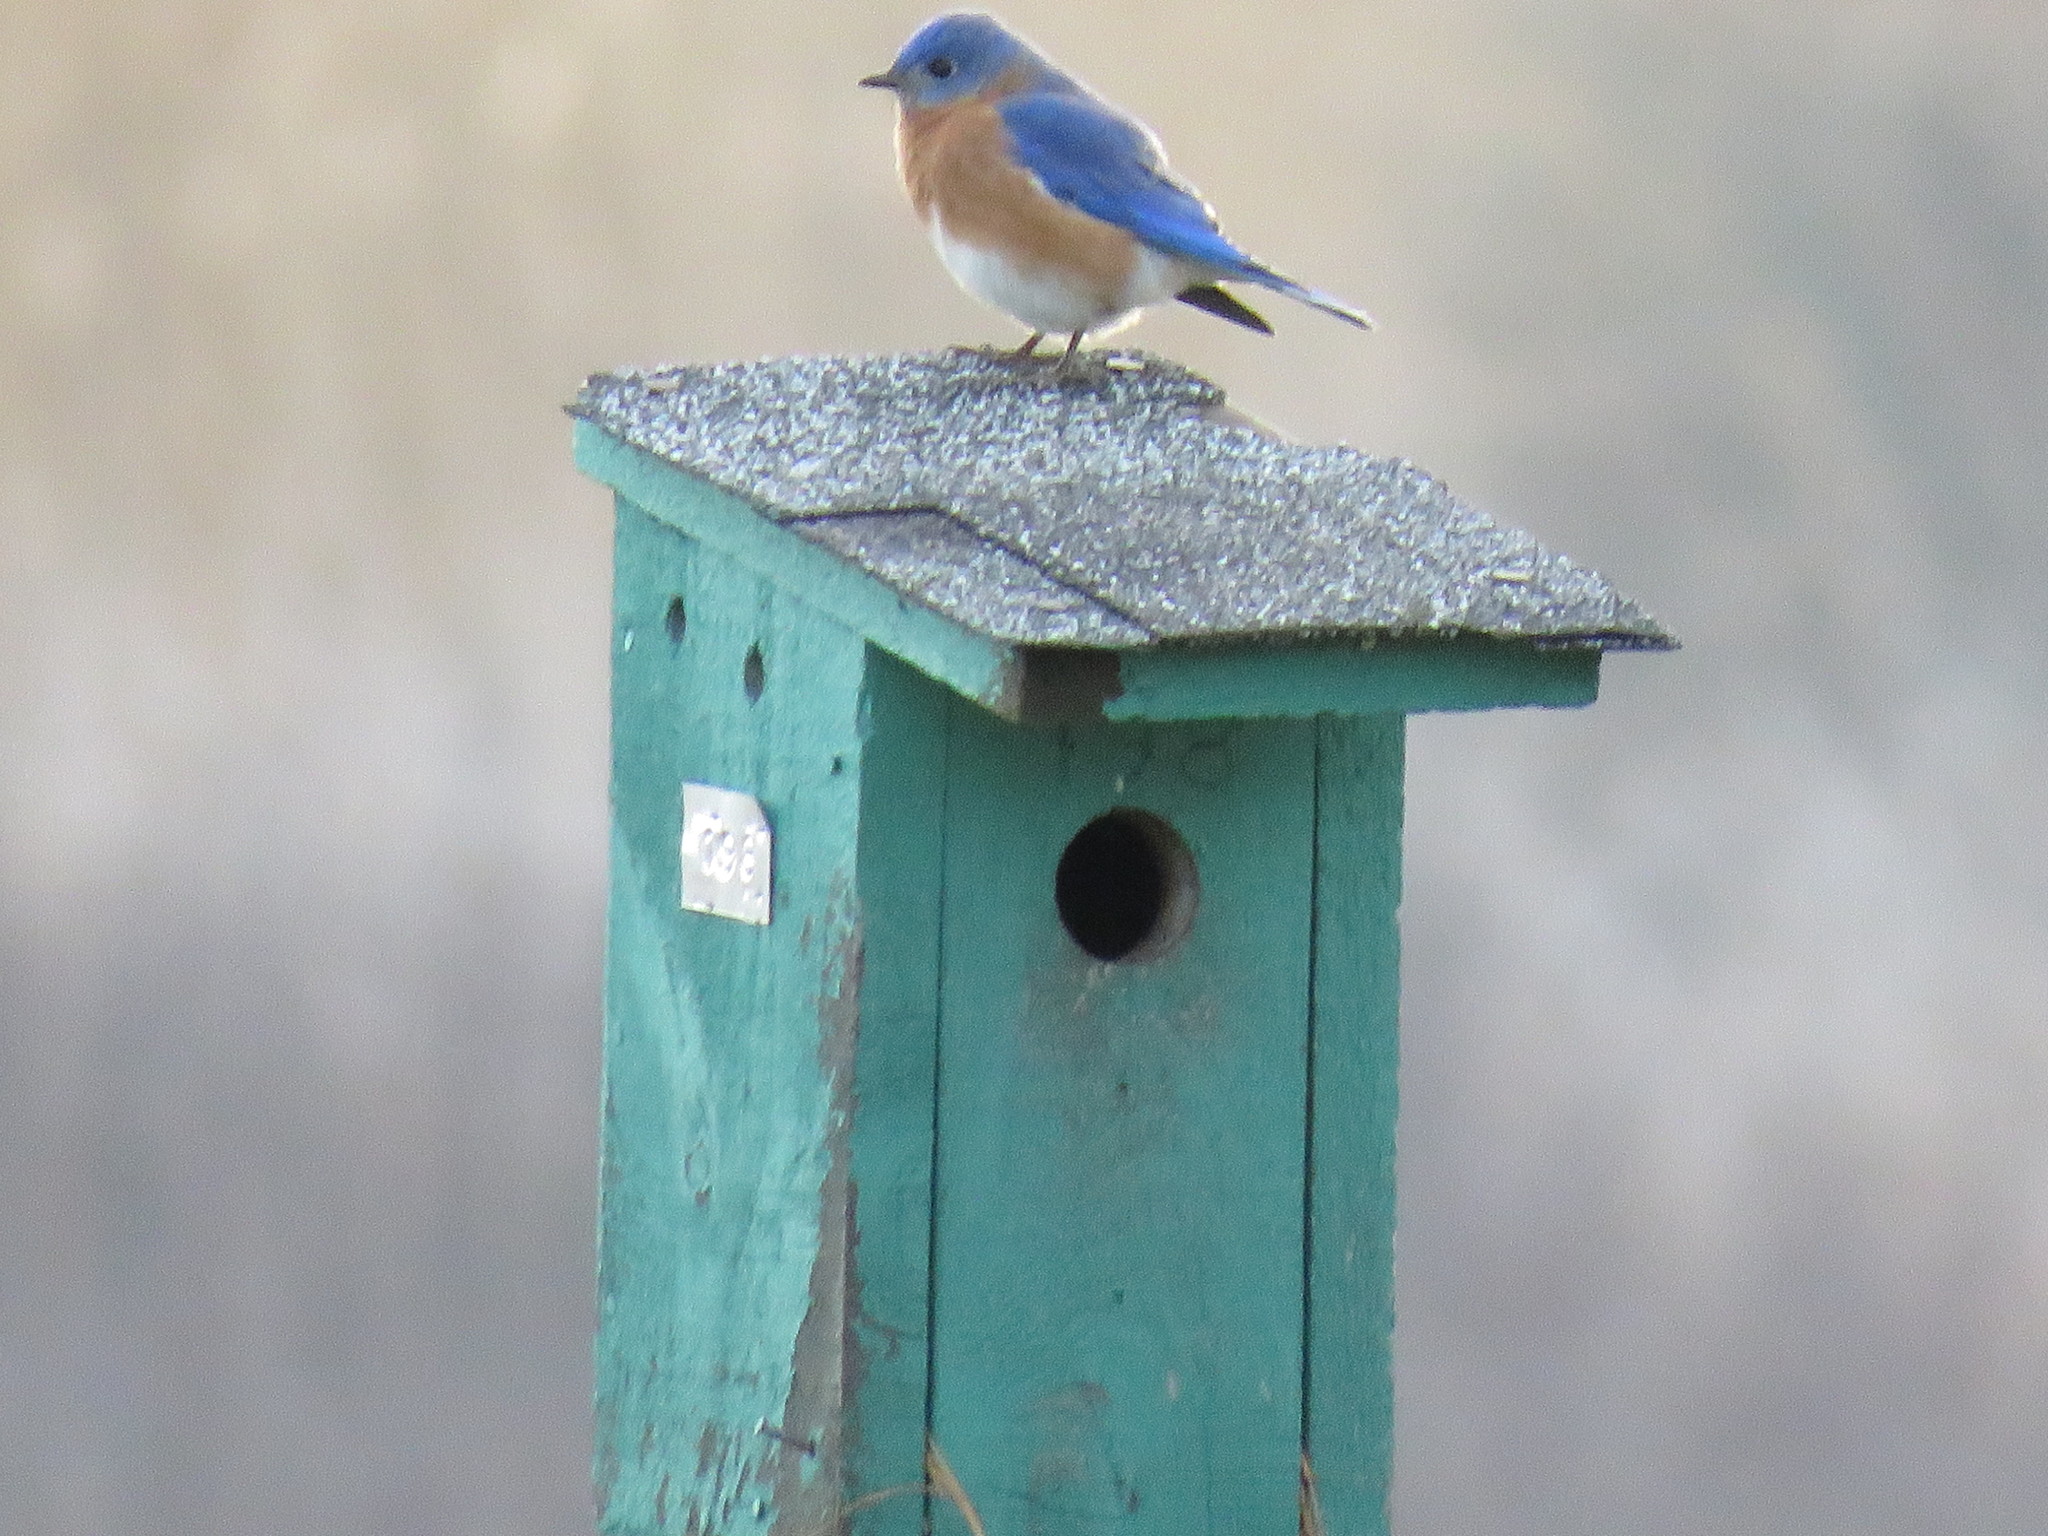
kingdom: Animalia
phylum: Chordata
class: Aves
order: Passeriformes
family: Turdidae
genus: Sialia
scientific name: Sialia sialis
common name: Eastern bluebird
